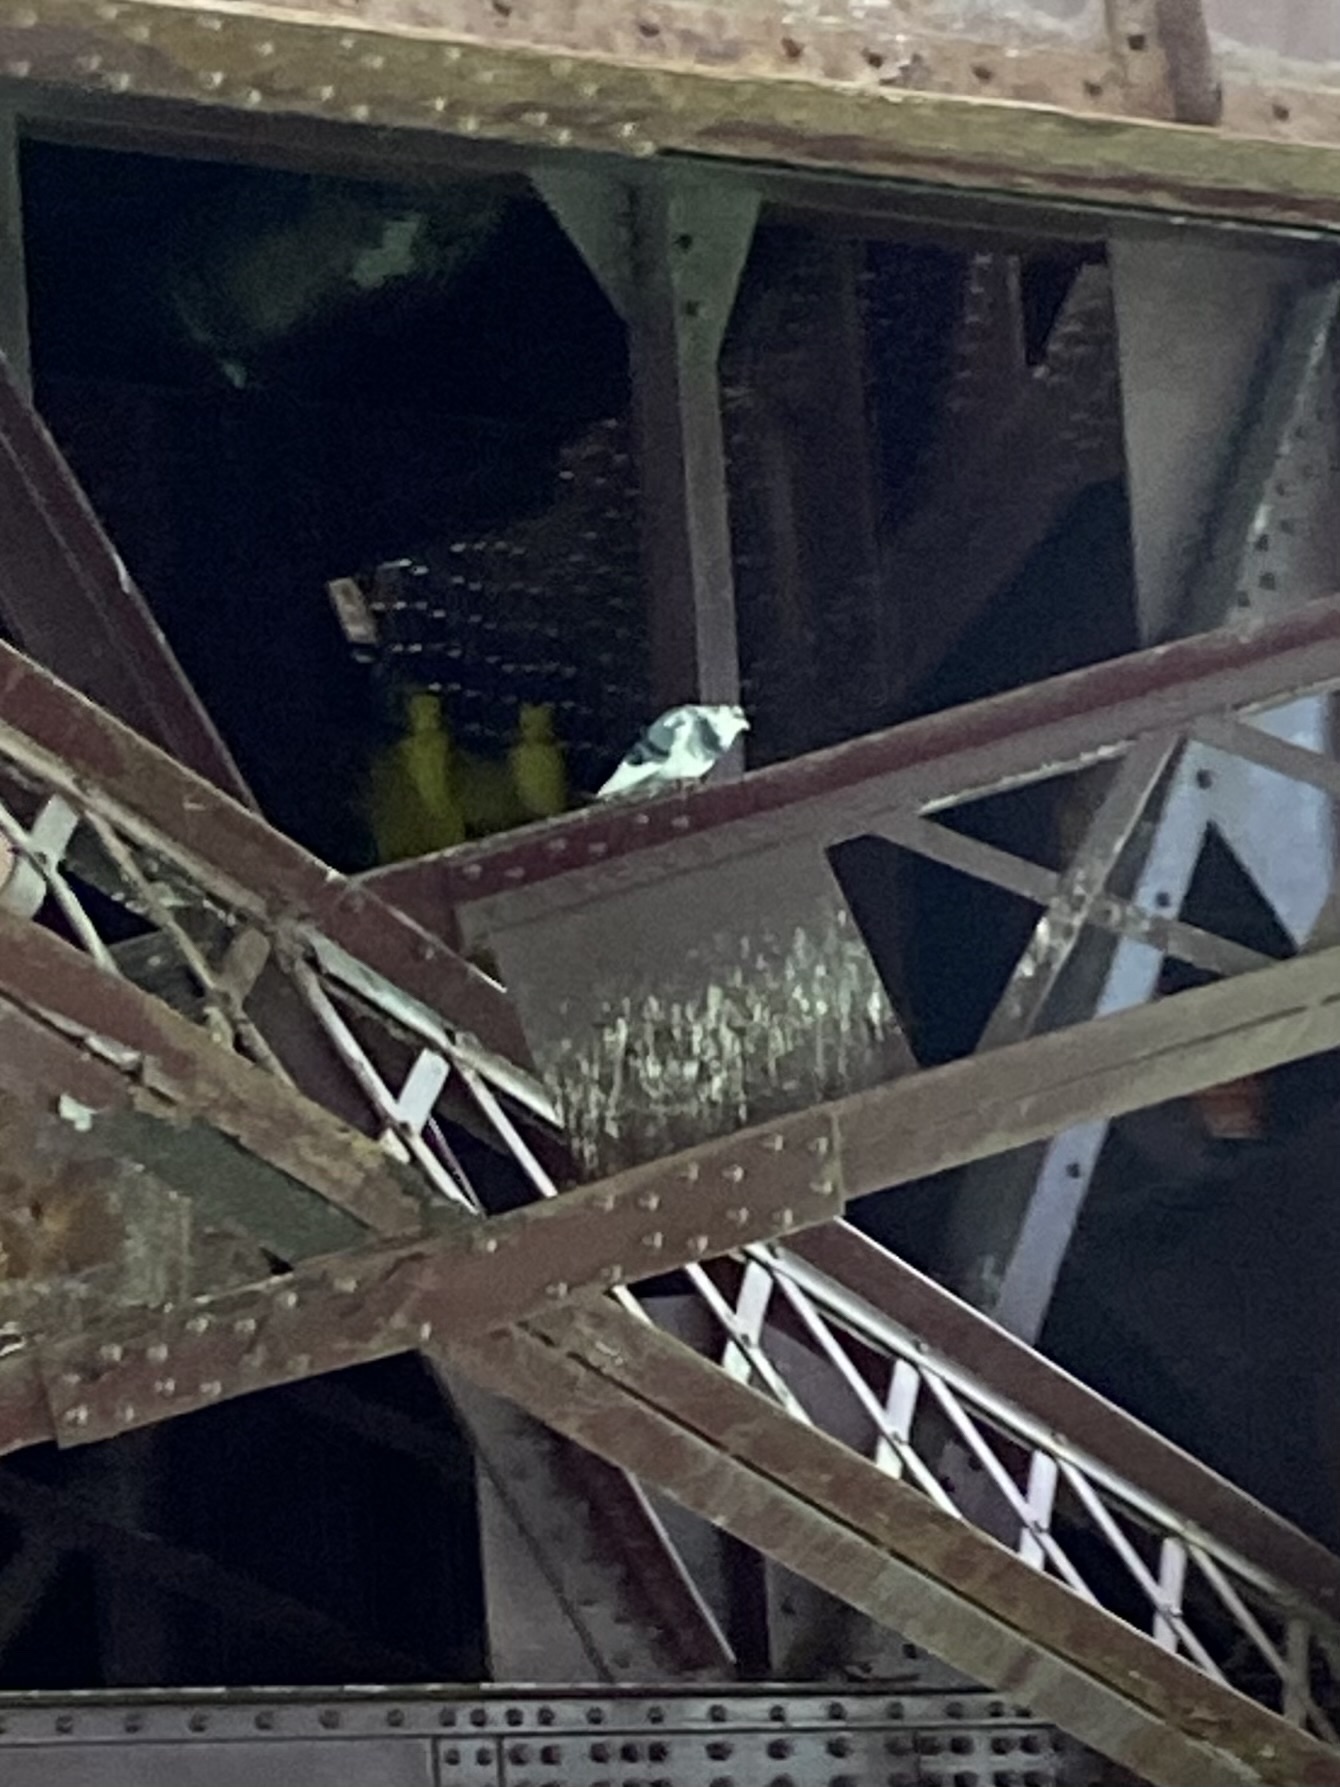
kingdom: Animalia
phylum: Chordata
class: Aves
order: Columbiformes
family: Columbidae
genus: Columba
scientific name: Columba livia
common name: Rock pigeon
